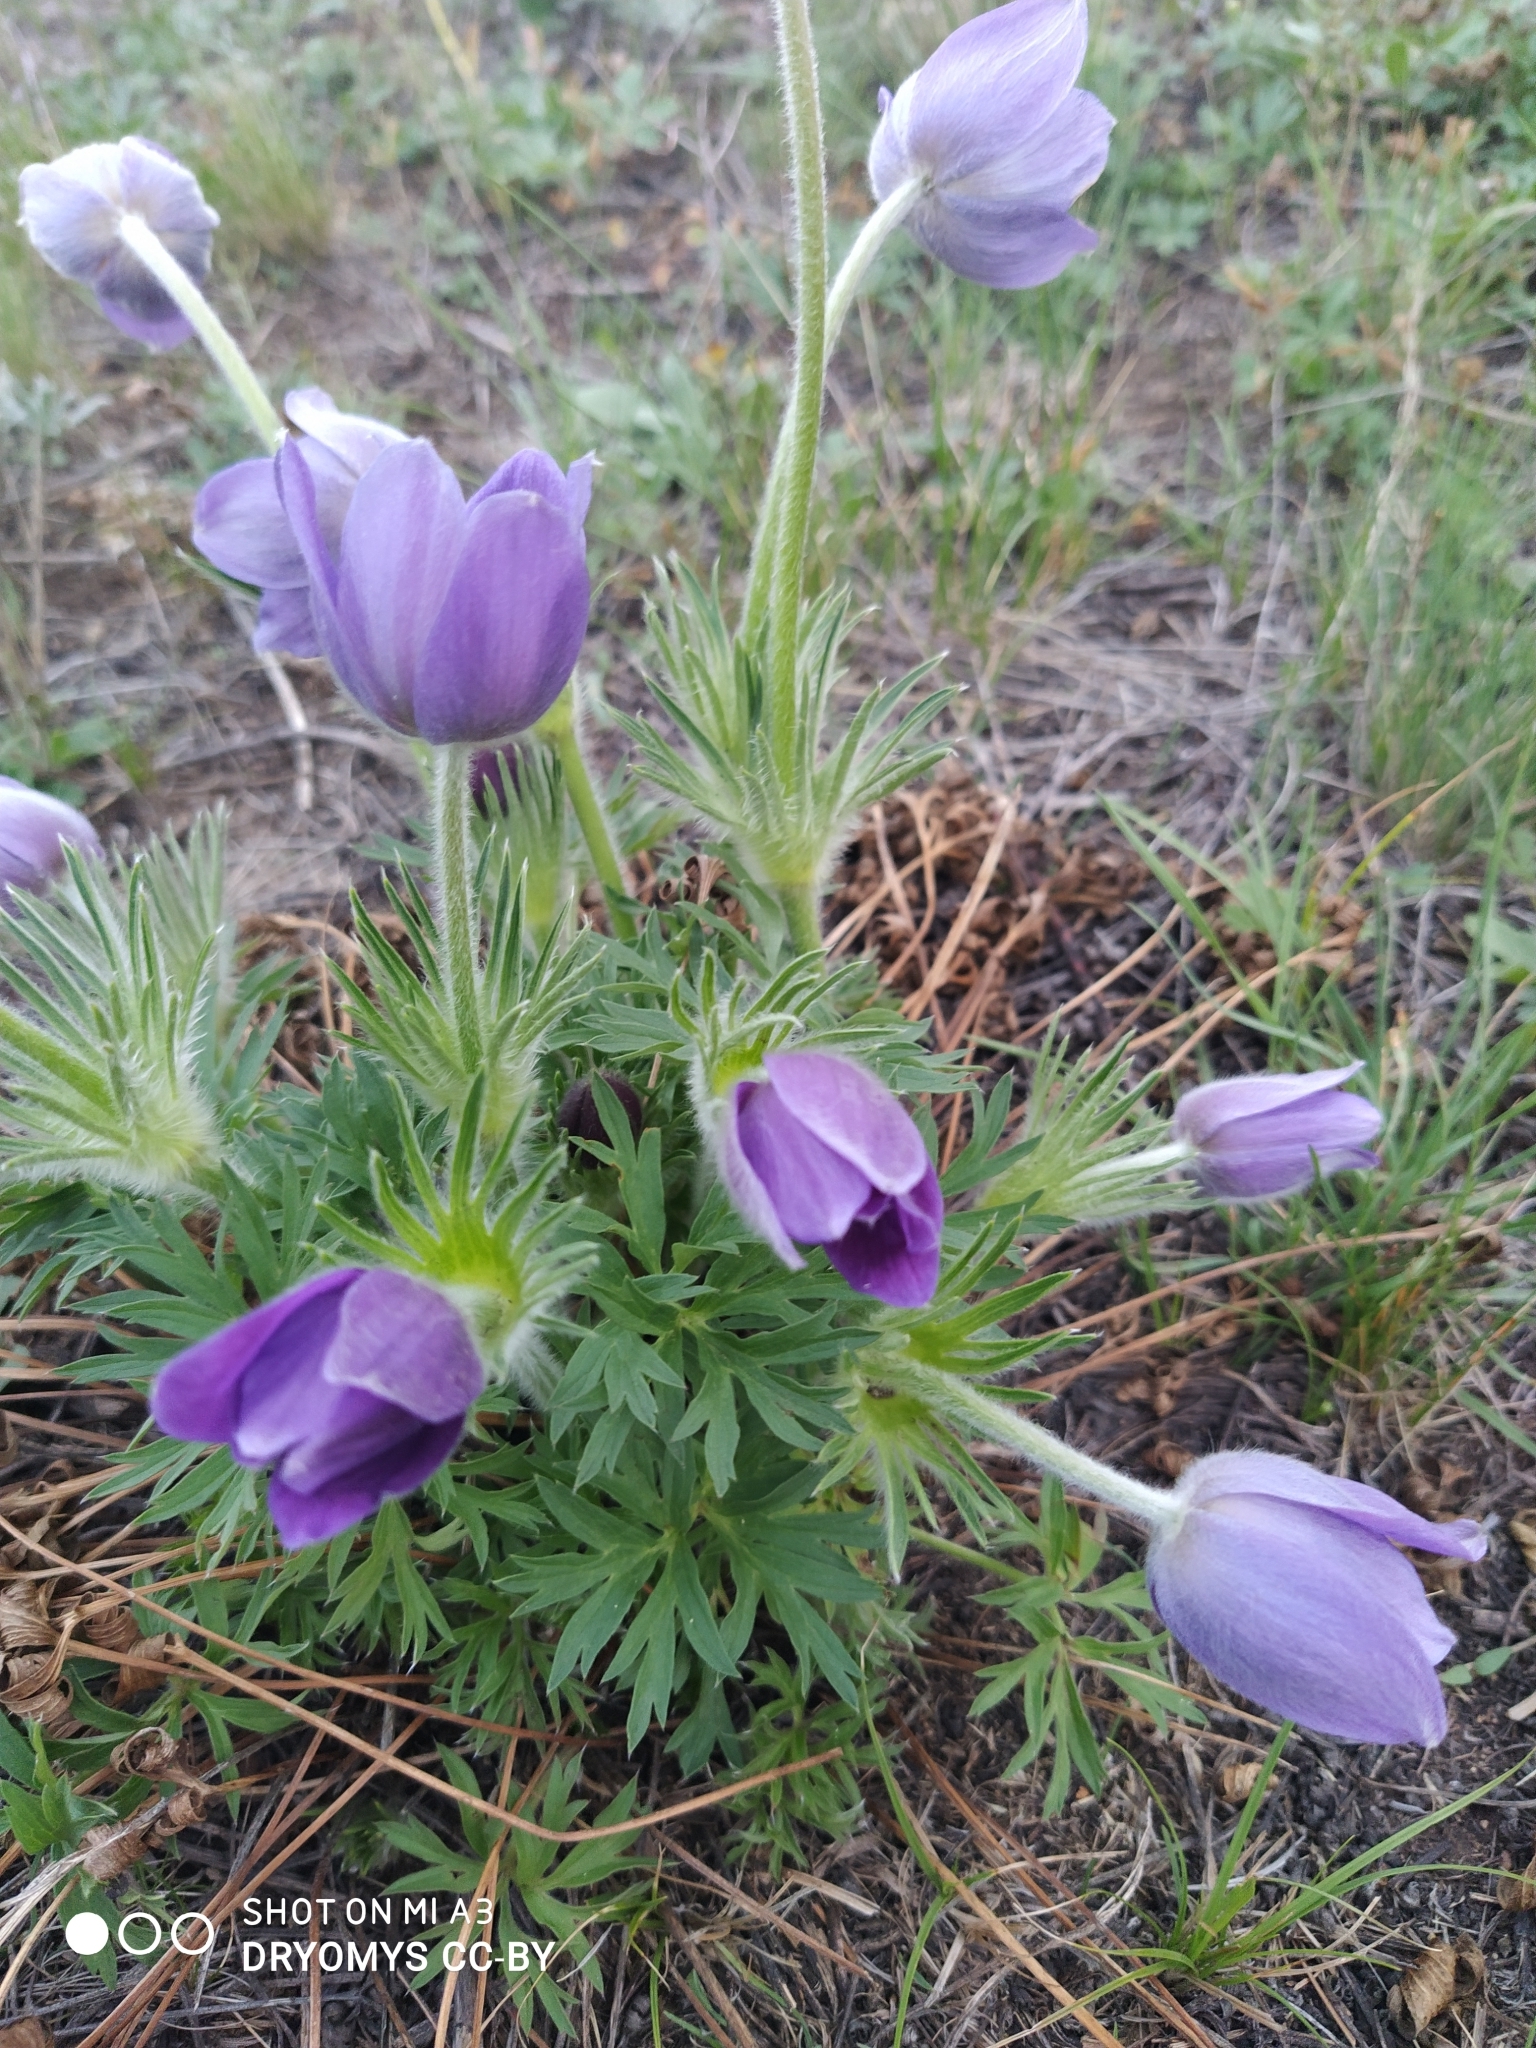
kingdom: Plantae
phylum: Tracheophyta
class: Magnoliopsida
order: Ranunculales
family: Ranunculaceae
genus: Pulsatilla
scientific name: Pulsatilla patens
